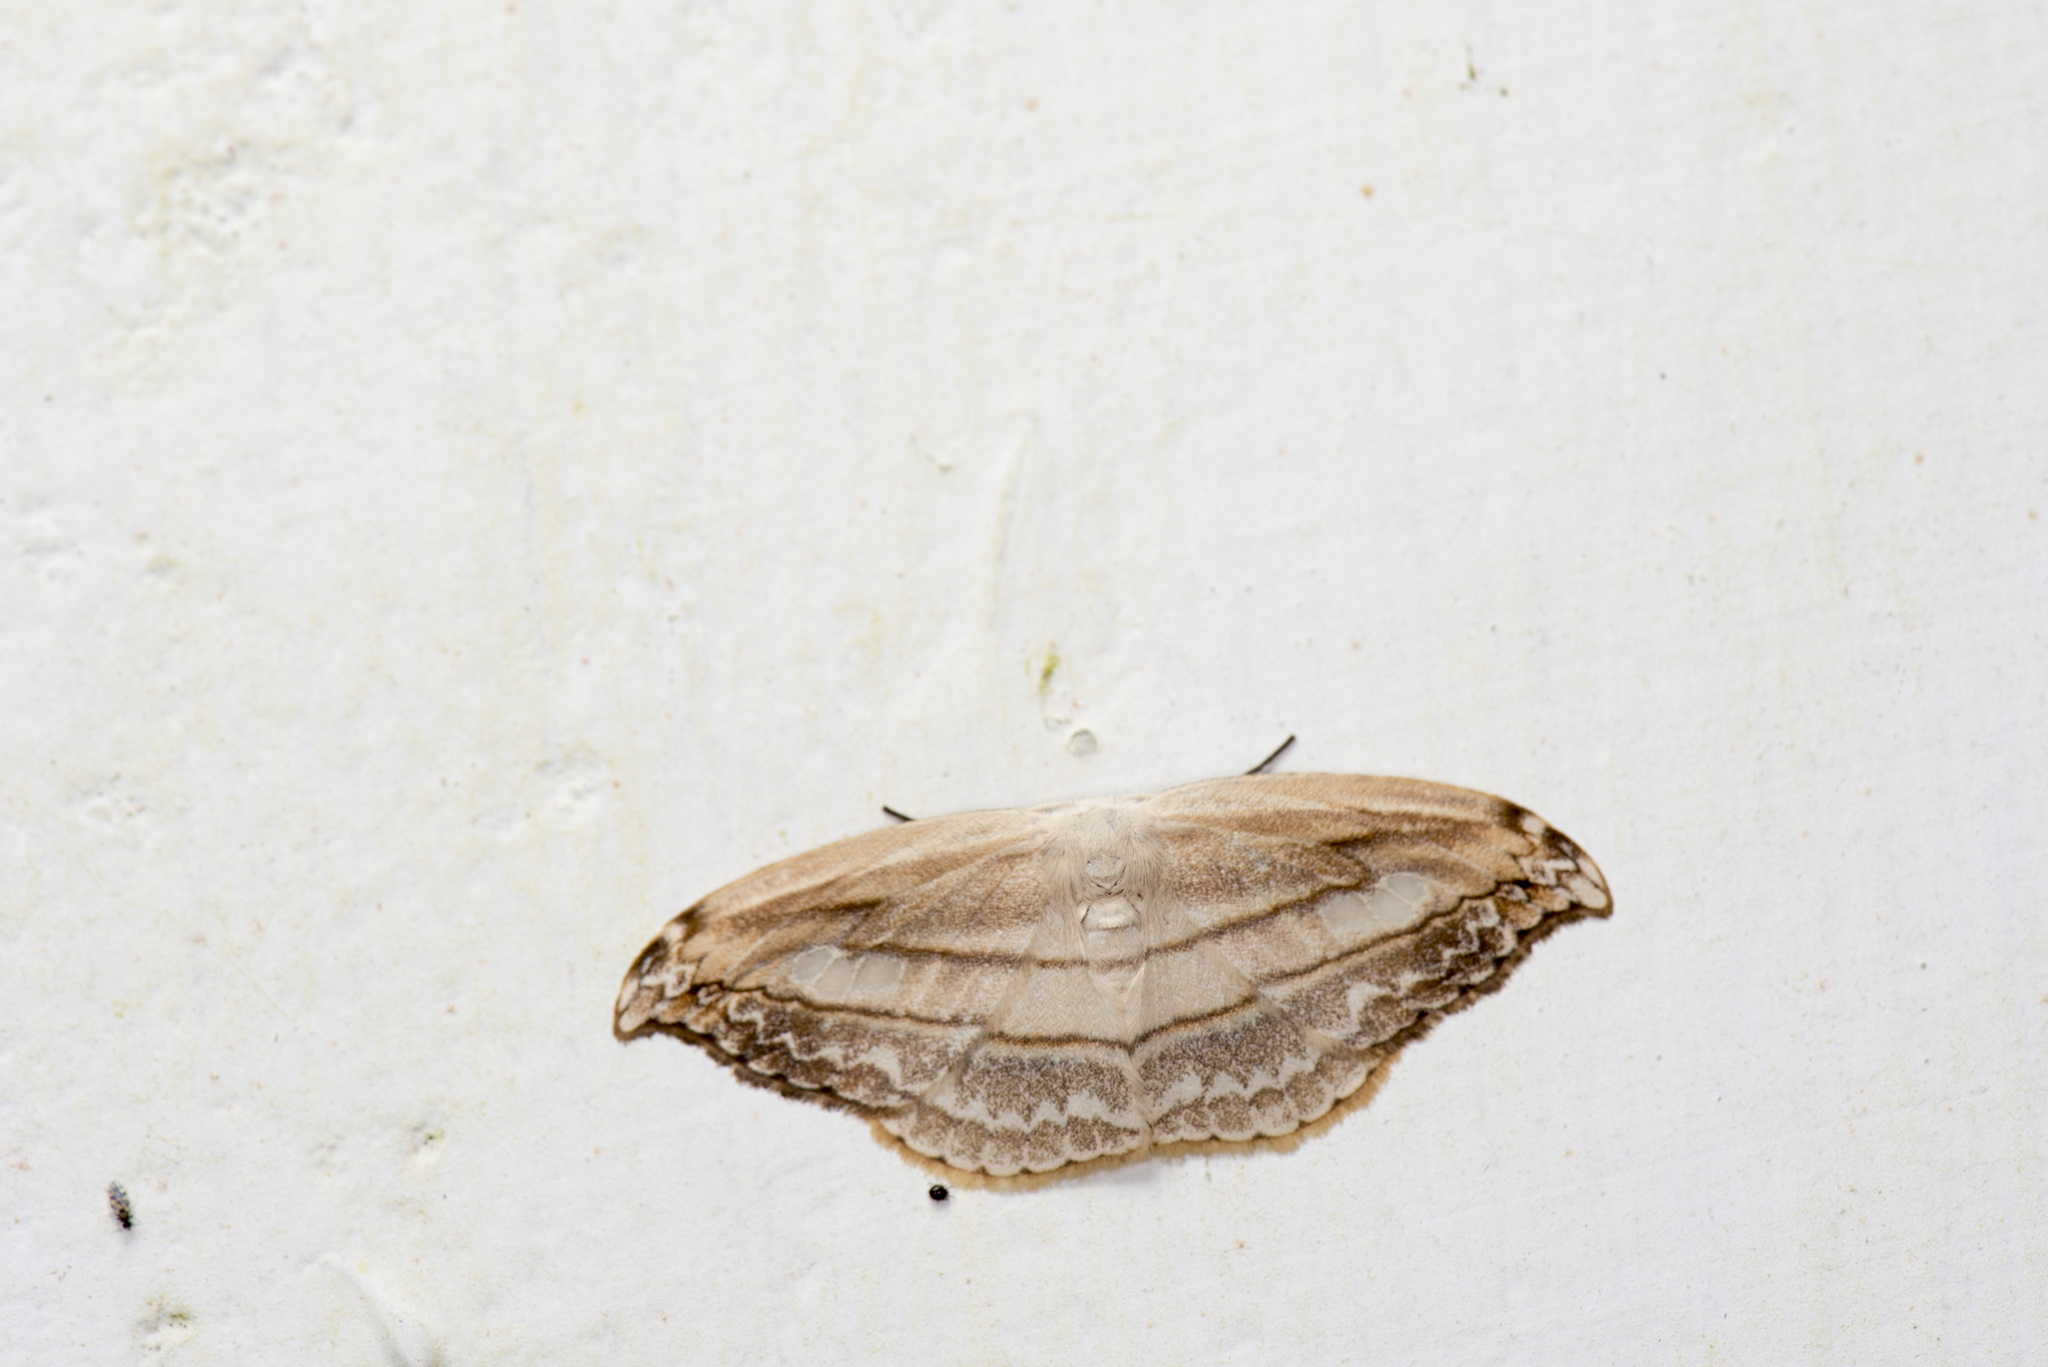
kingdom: Animalia
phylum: Arthropoda
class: Insecta
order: Lepidoptera
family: Drepanidae
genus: Leucoblepsis
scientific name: Leucoblepsis fenestraria
